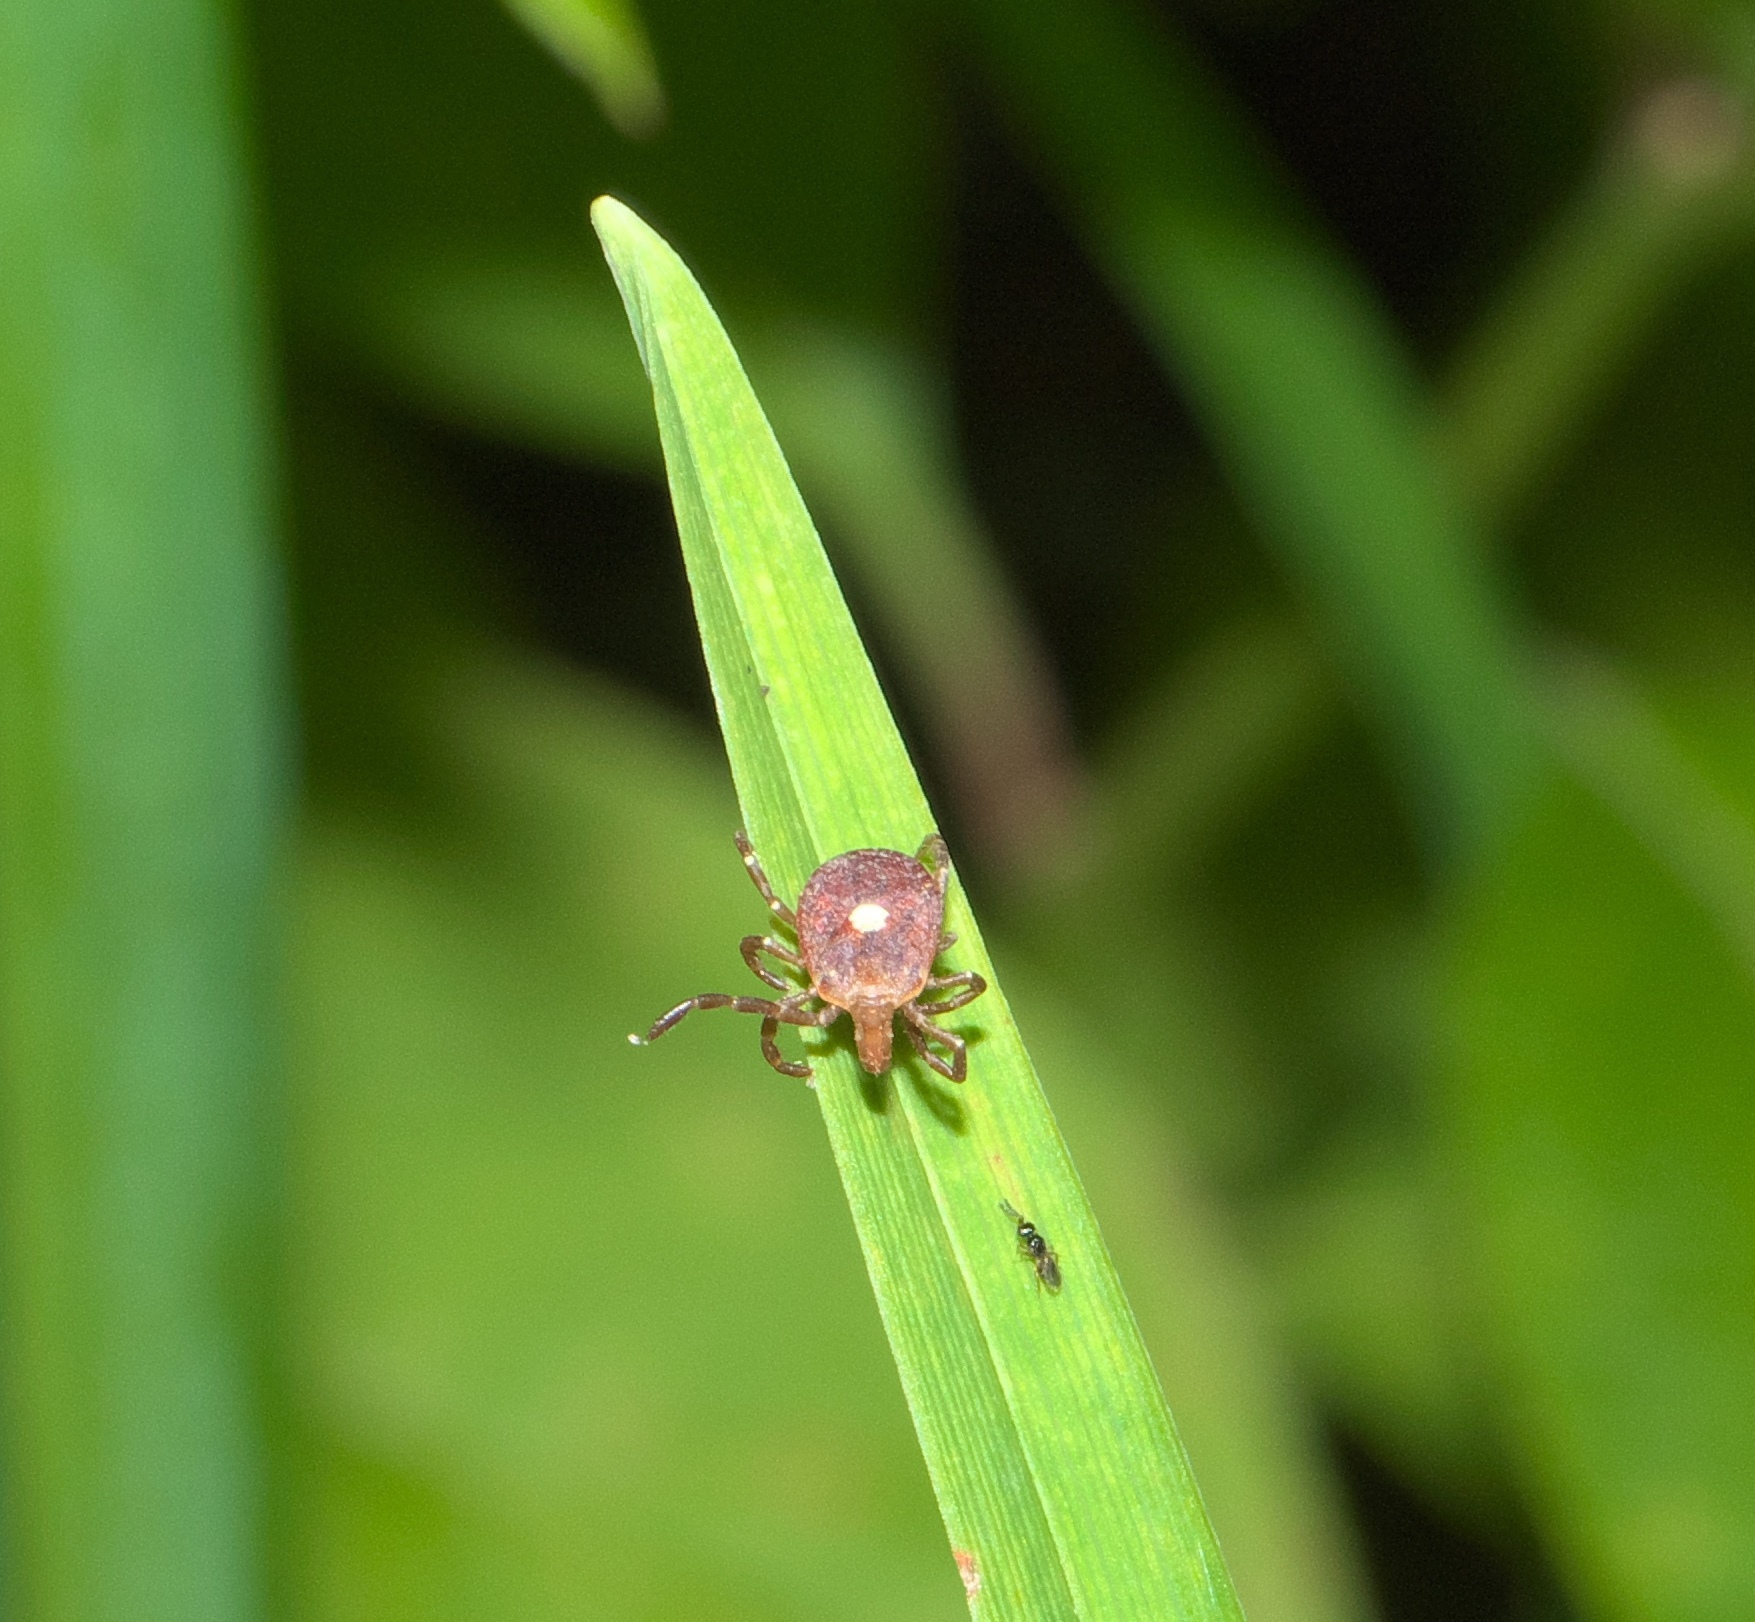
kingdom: Animalia
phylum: Arthropoda
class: Arachnida
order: Ixodida
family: Ixodidae
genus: Amblyomma
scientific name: Amblyomma americanum
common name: Lone star tick
